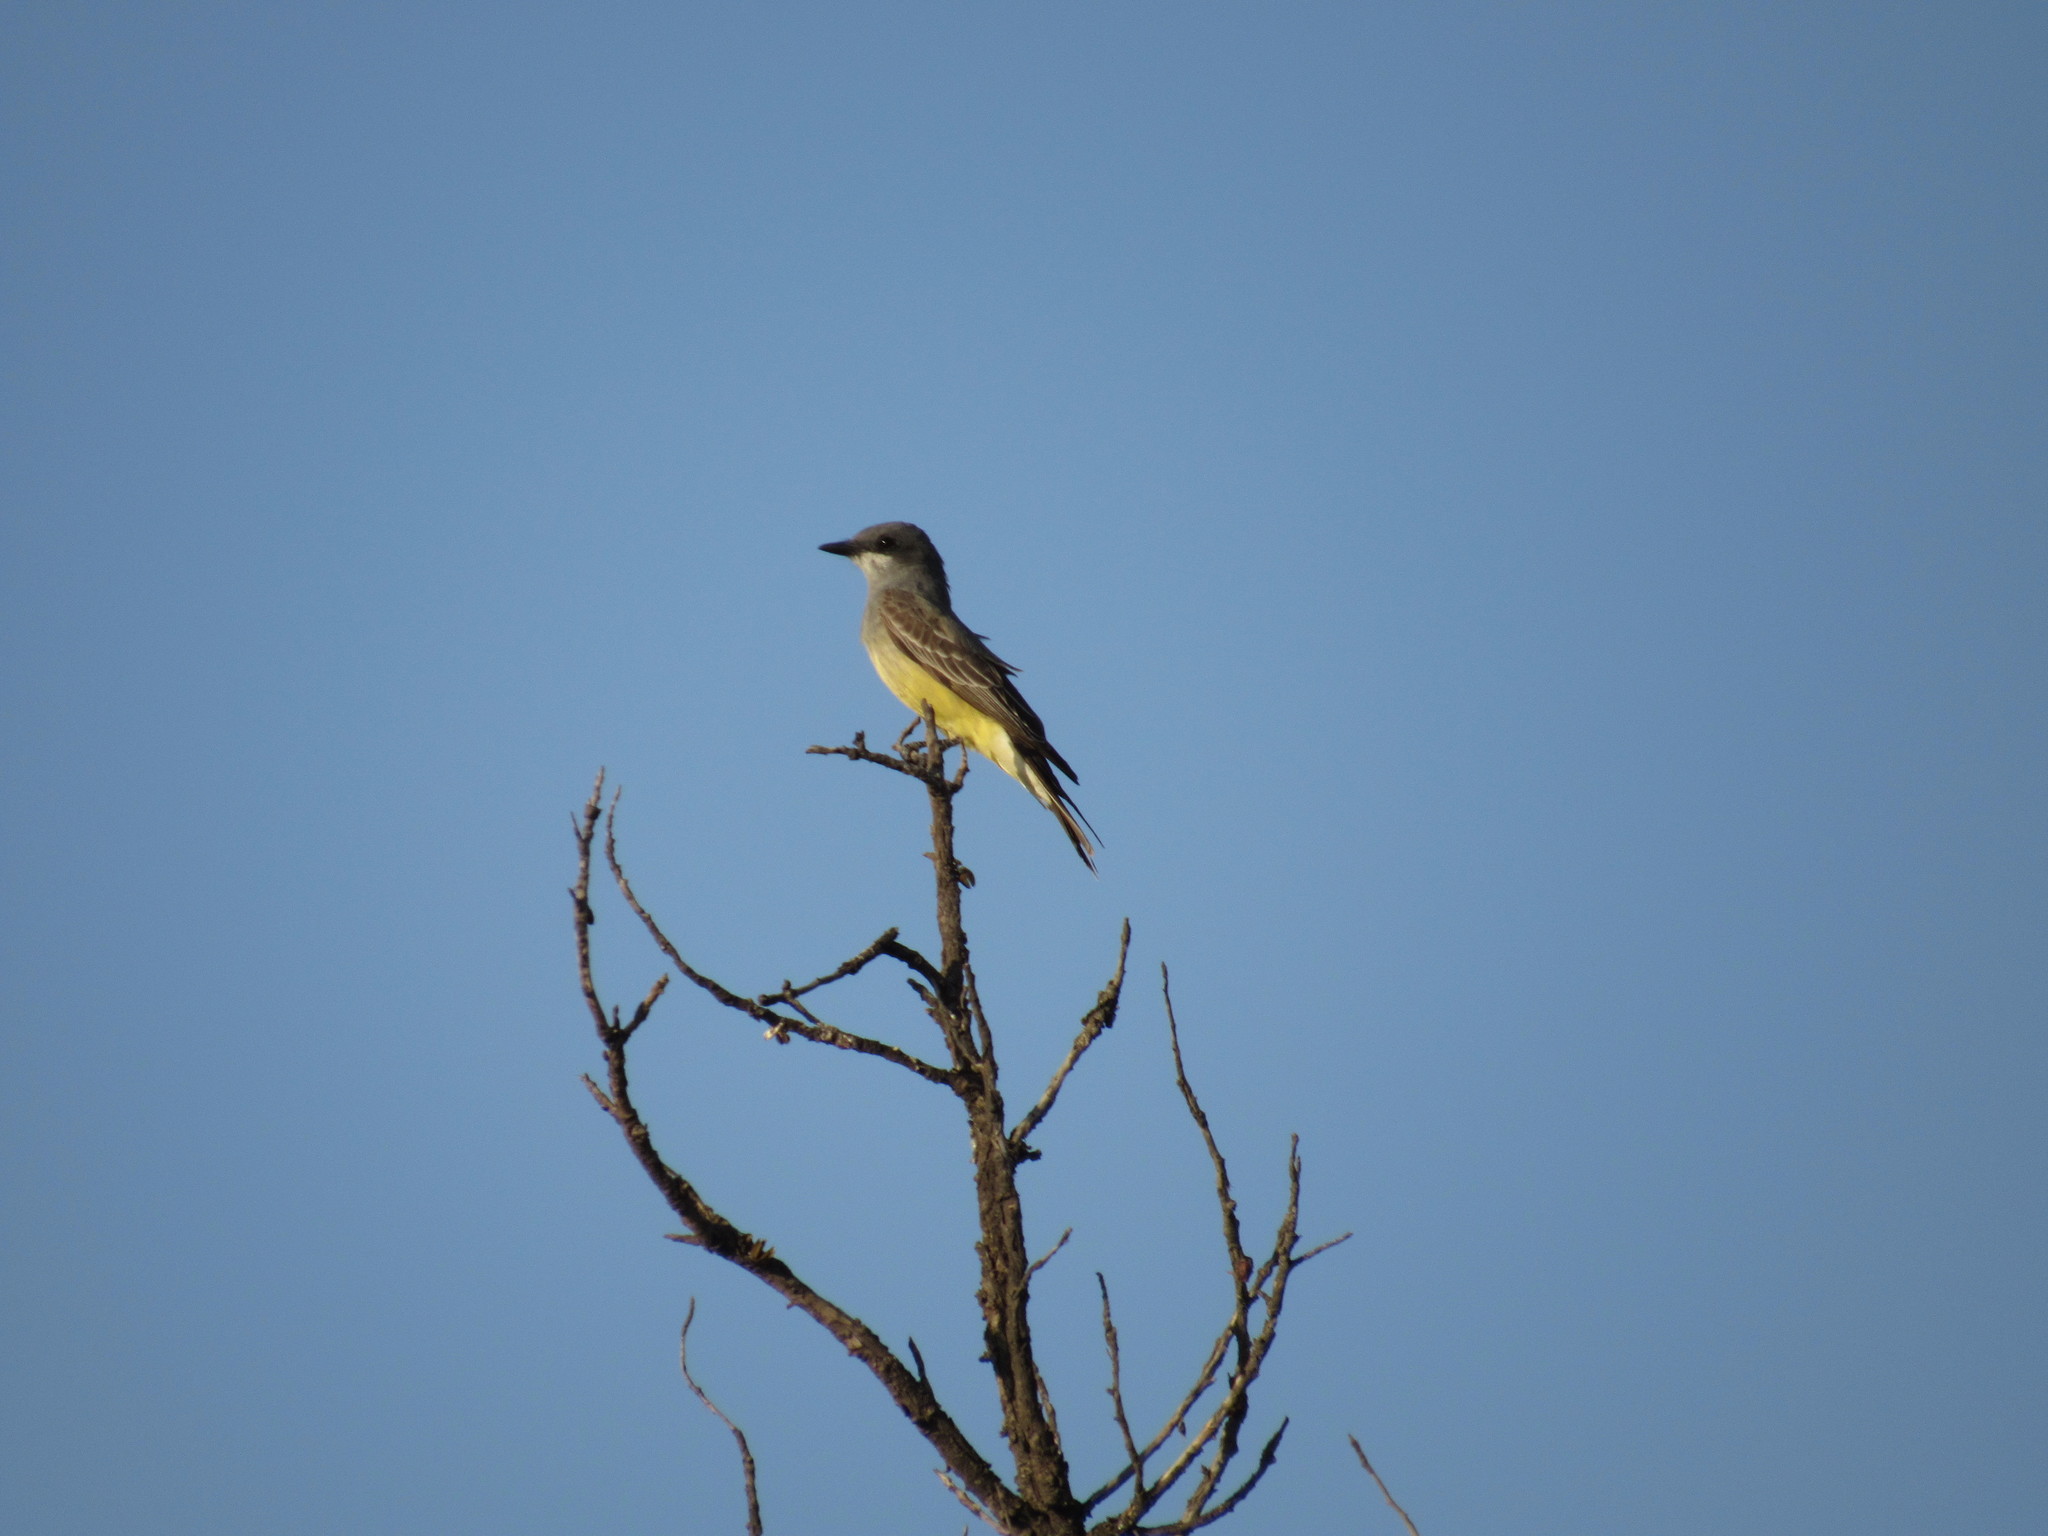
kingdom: Animalia
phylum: Chordata
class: Aves
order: Passeriformes
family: Tyrannidae
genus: Tyrannus
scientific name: Tyrannus vociferans
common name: Cassin's kingbird
